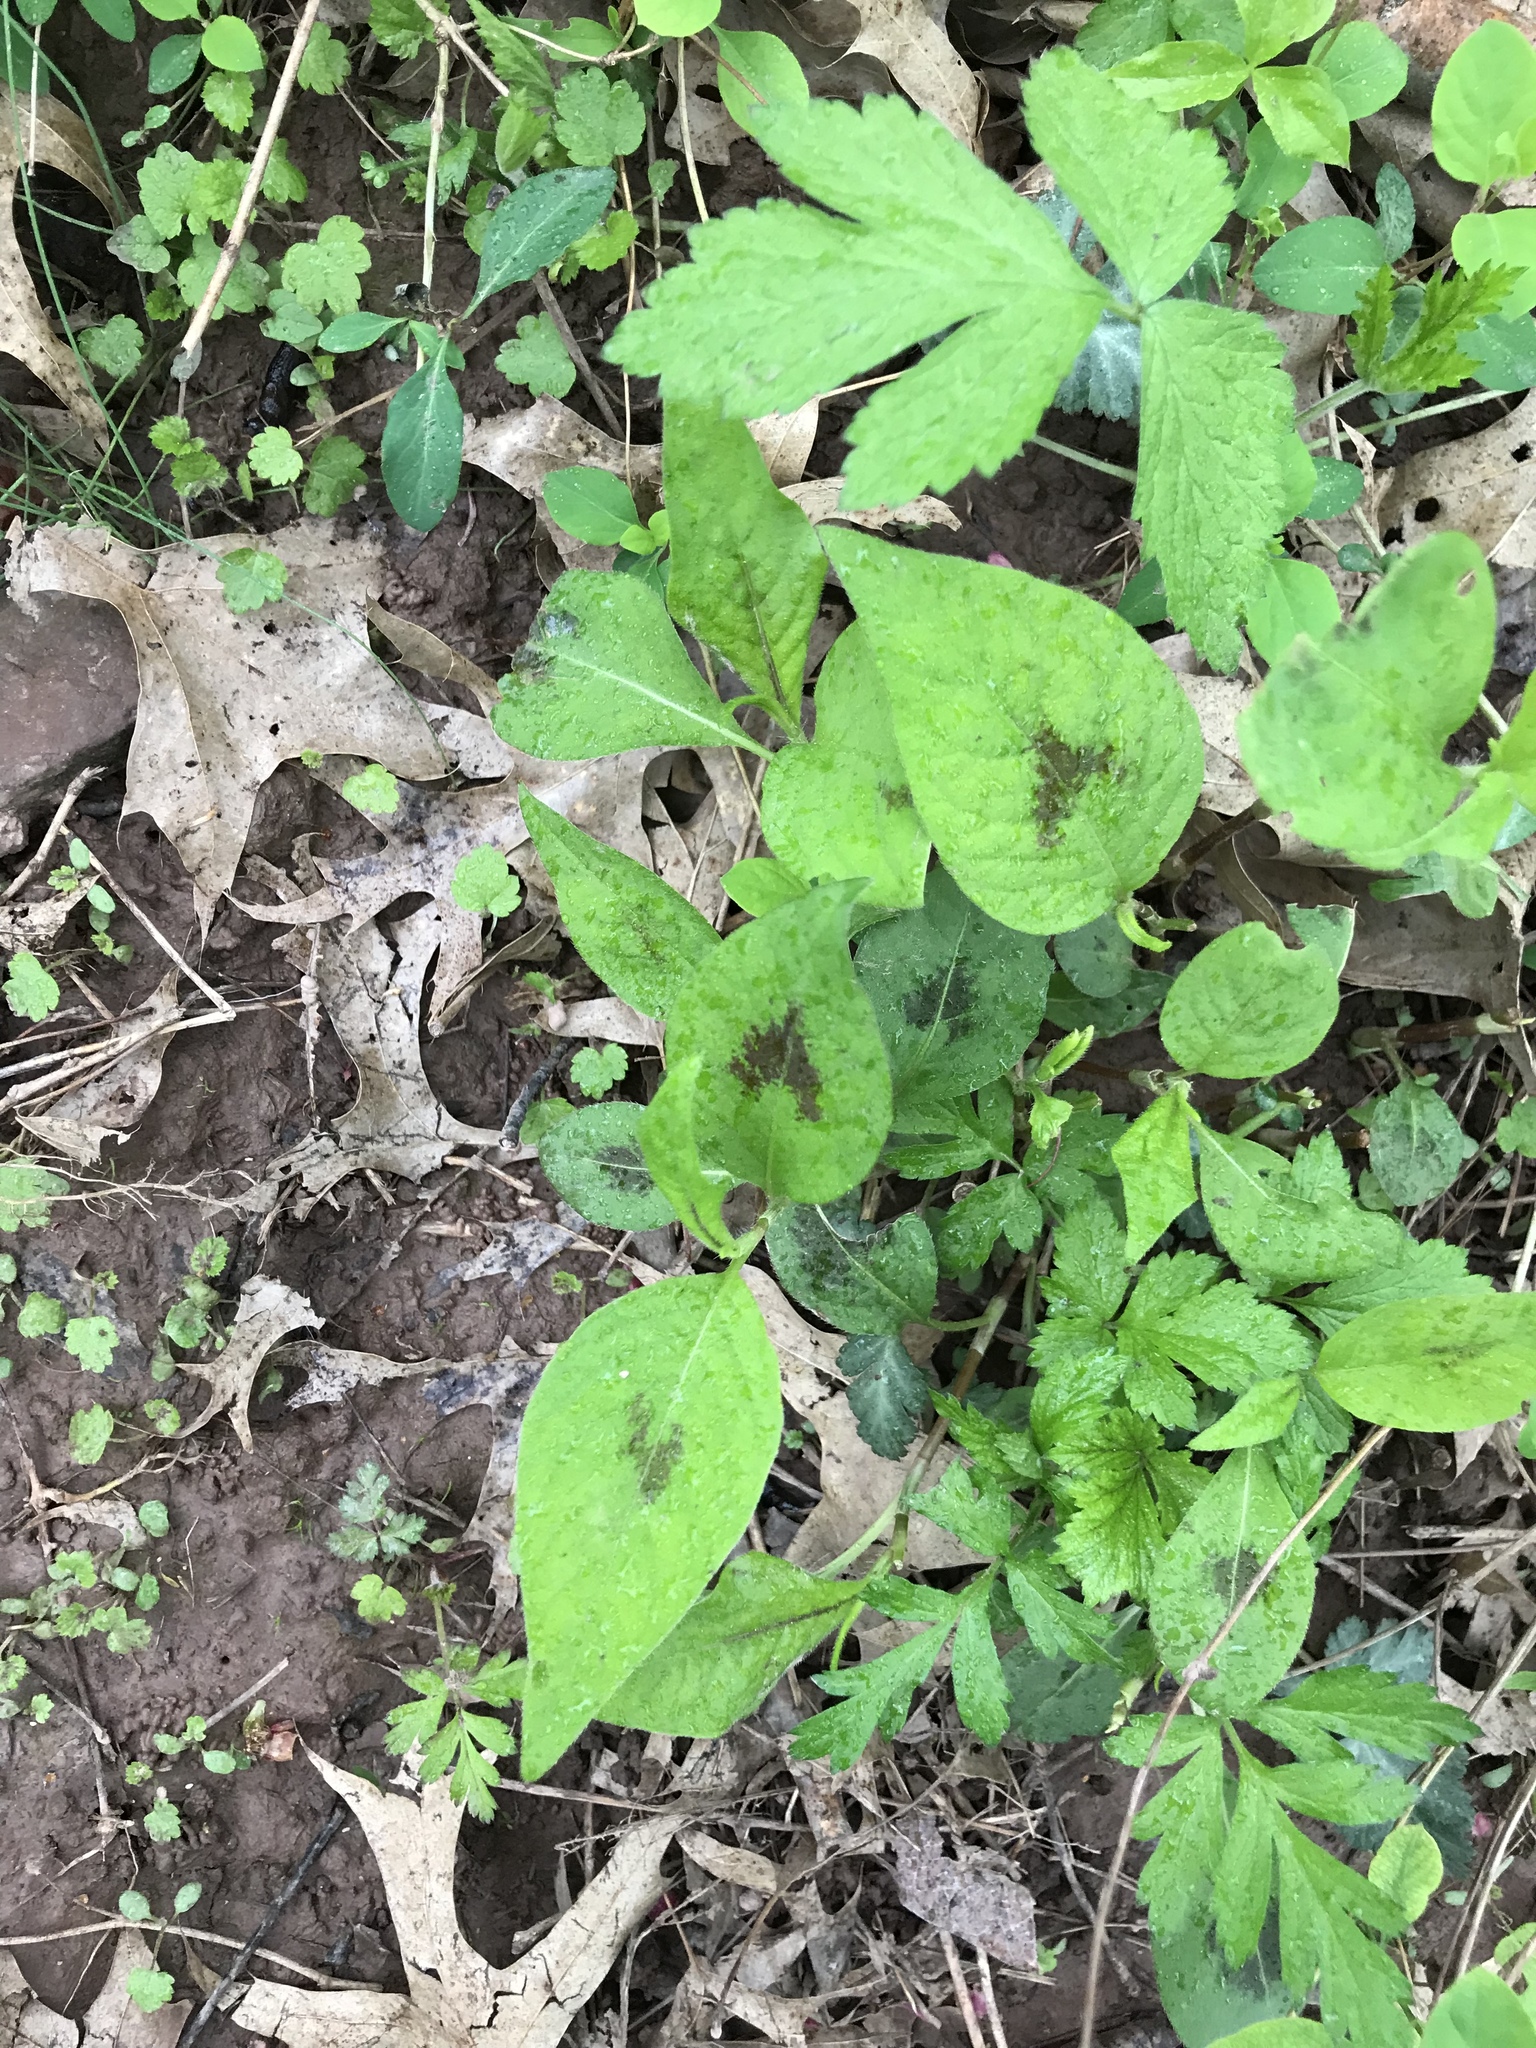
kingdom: Plantae
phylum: Tracheophyta
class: Magnoliopsida
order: Caryophyllales
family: Polygonaceae
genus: Persicaria
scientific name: Persicaria virginiana
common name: Jumpseed
